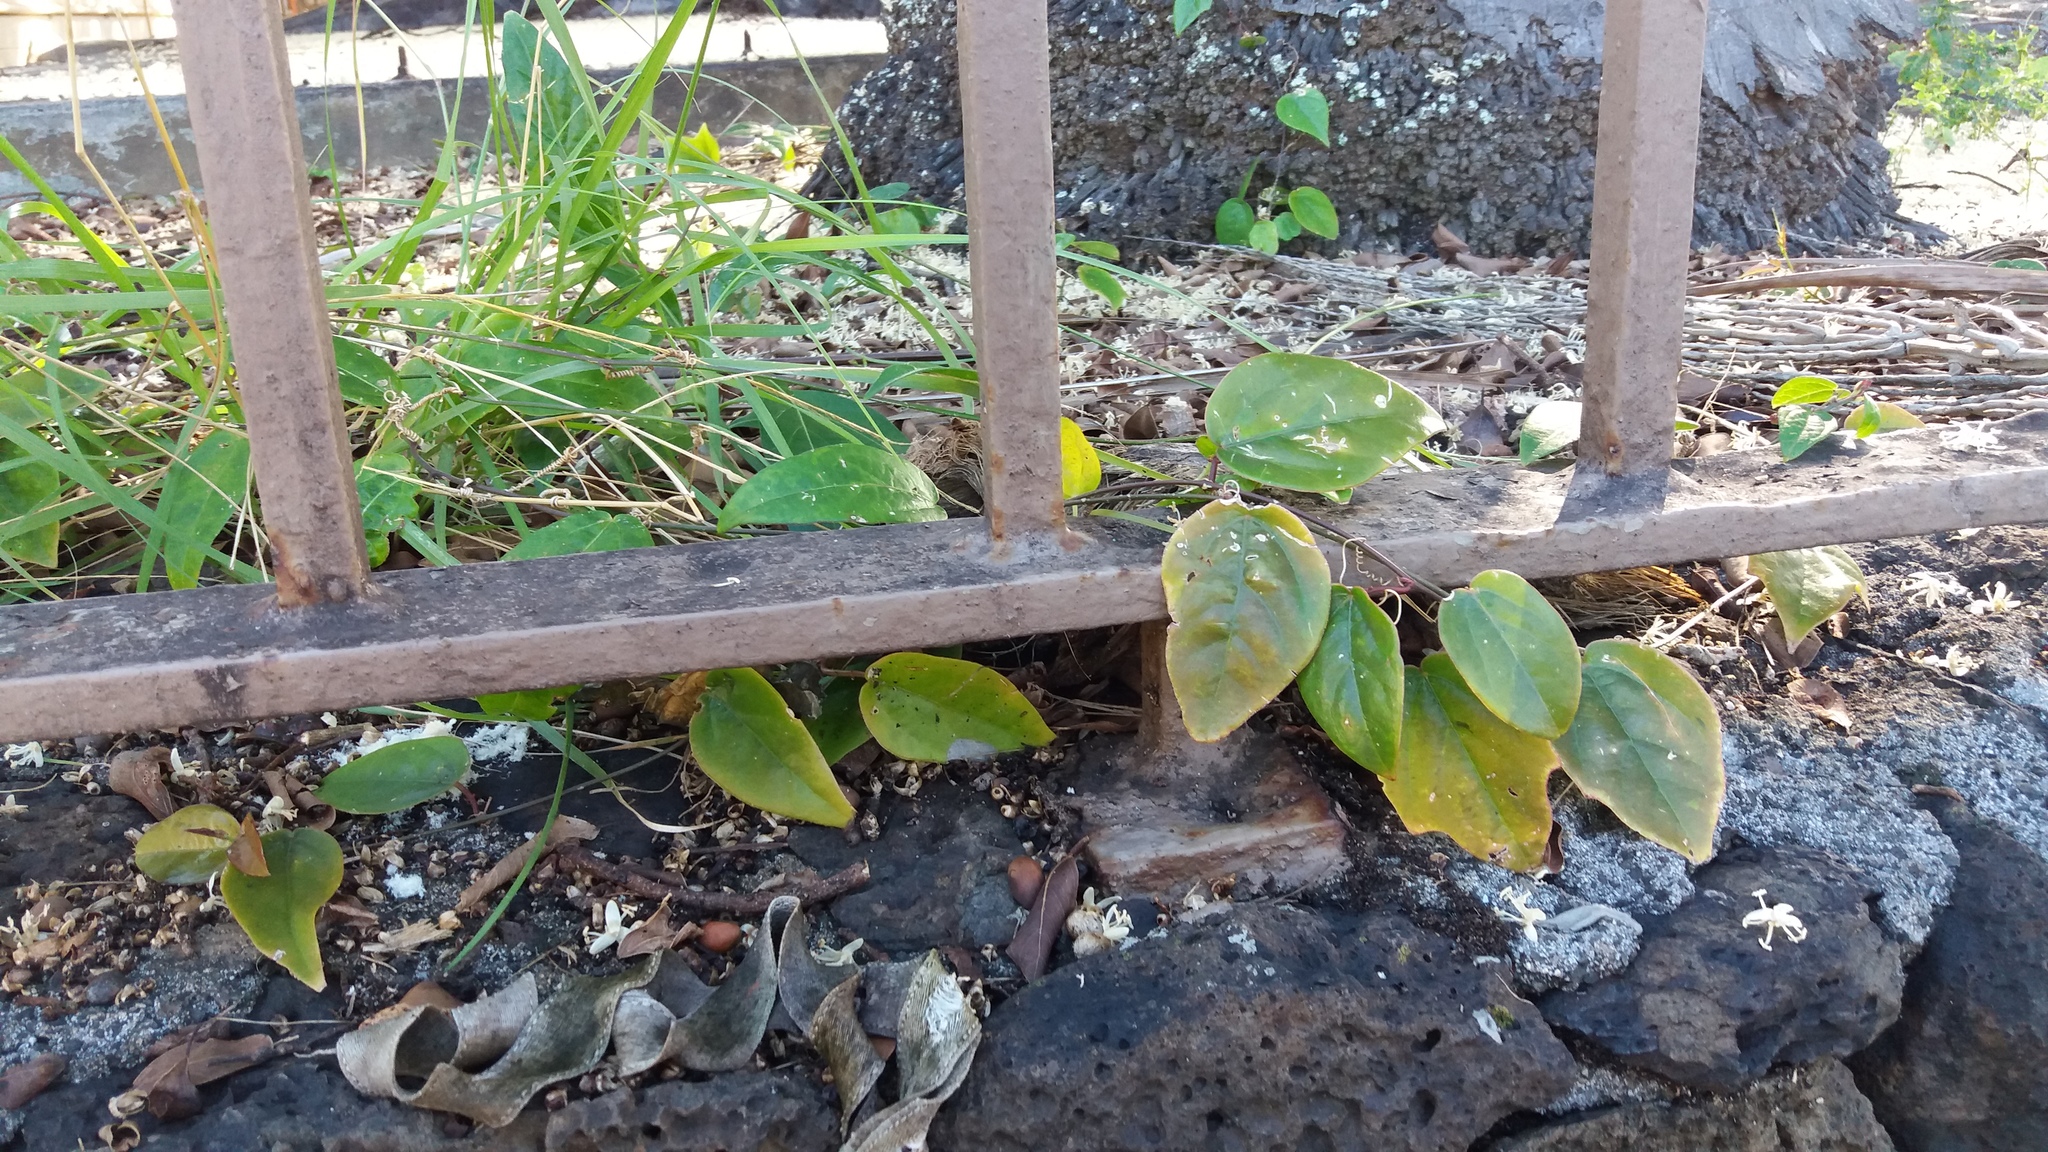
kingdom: Plantae
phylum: Tracheophyta
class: Magnoliopsida
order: Malpighiales
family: Passifloraceae
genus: Passiflora
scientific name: Passiflora suberosa
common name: Wild passionfruit
